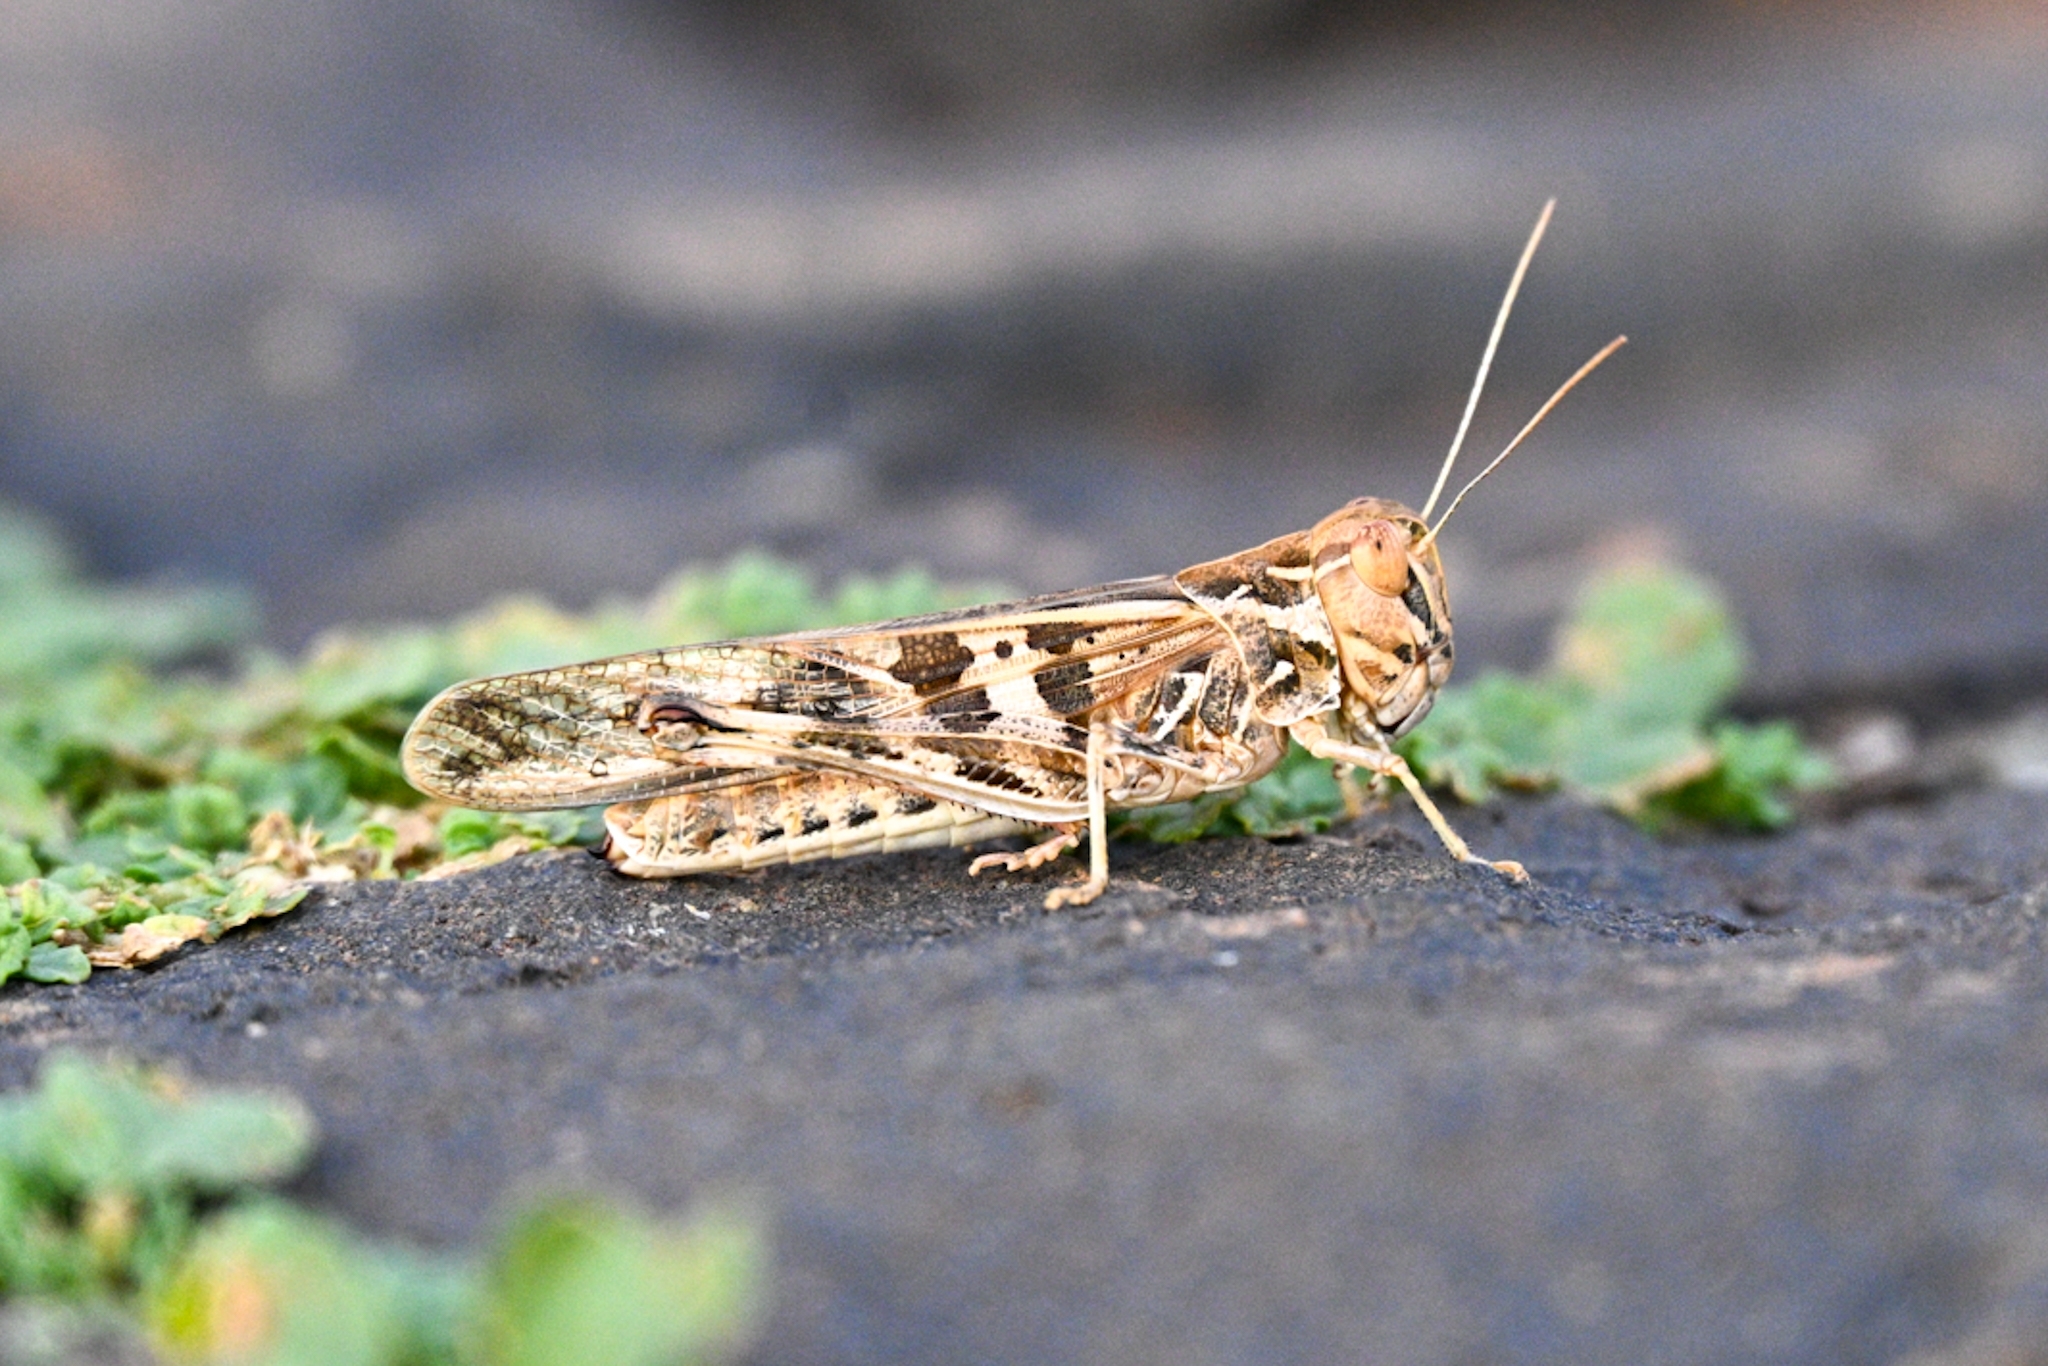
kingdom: Animalia
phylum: Arthropoda
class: Insecta
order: Orthoptera
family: Acrididae
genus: Oedaleus
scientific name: Oedaleus senegalensis
